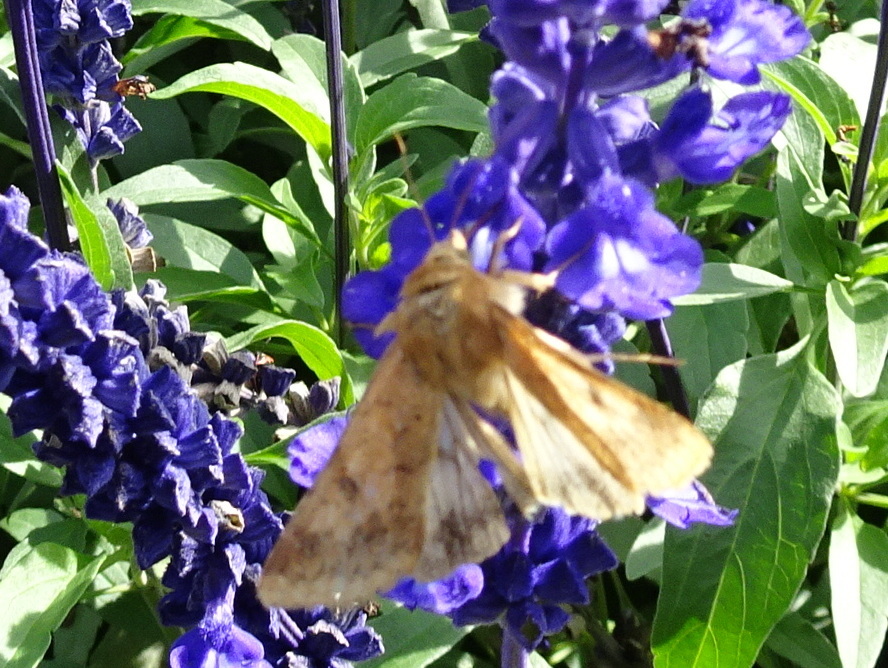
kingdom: Animalia
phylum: Arthropoda
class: Insecta
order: Lepidoptera
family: Noctuidae
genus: Helicoverpa
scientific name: Helicoverpa zea
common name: Bollworm
